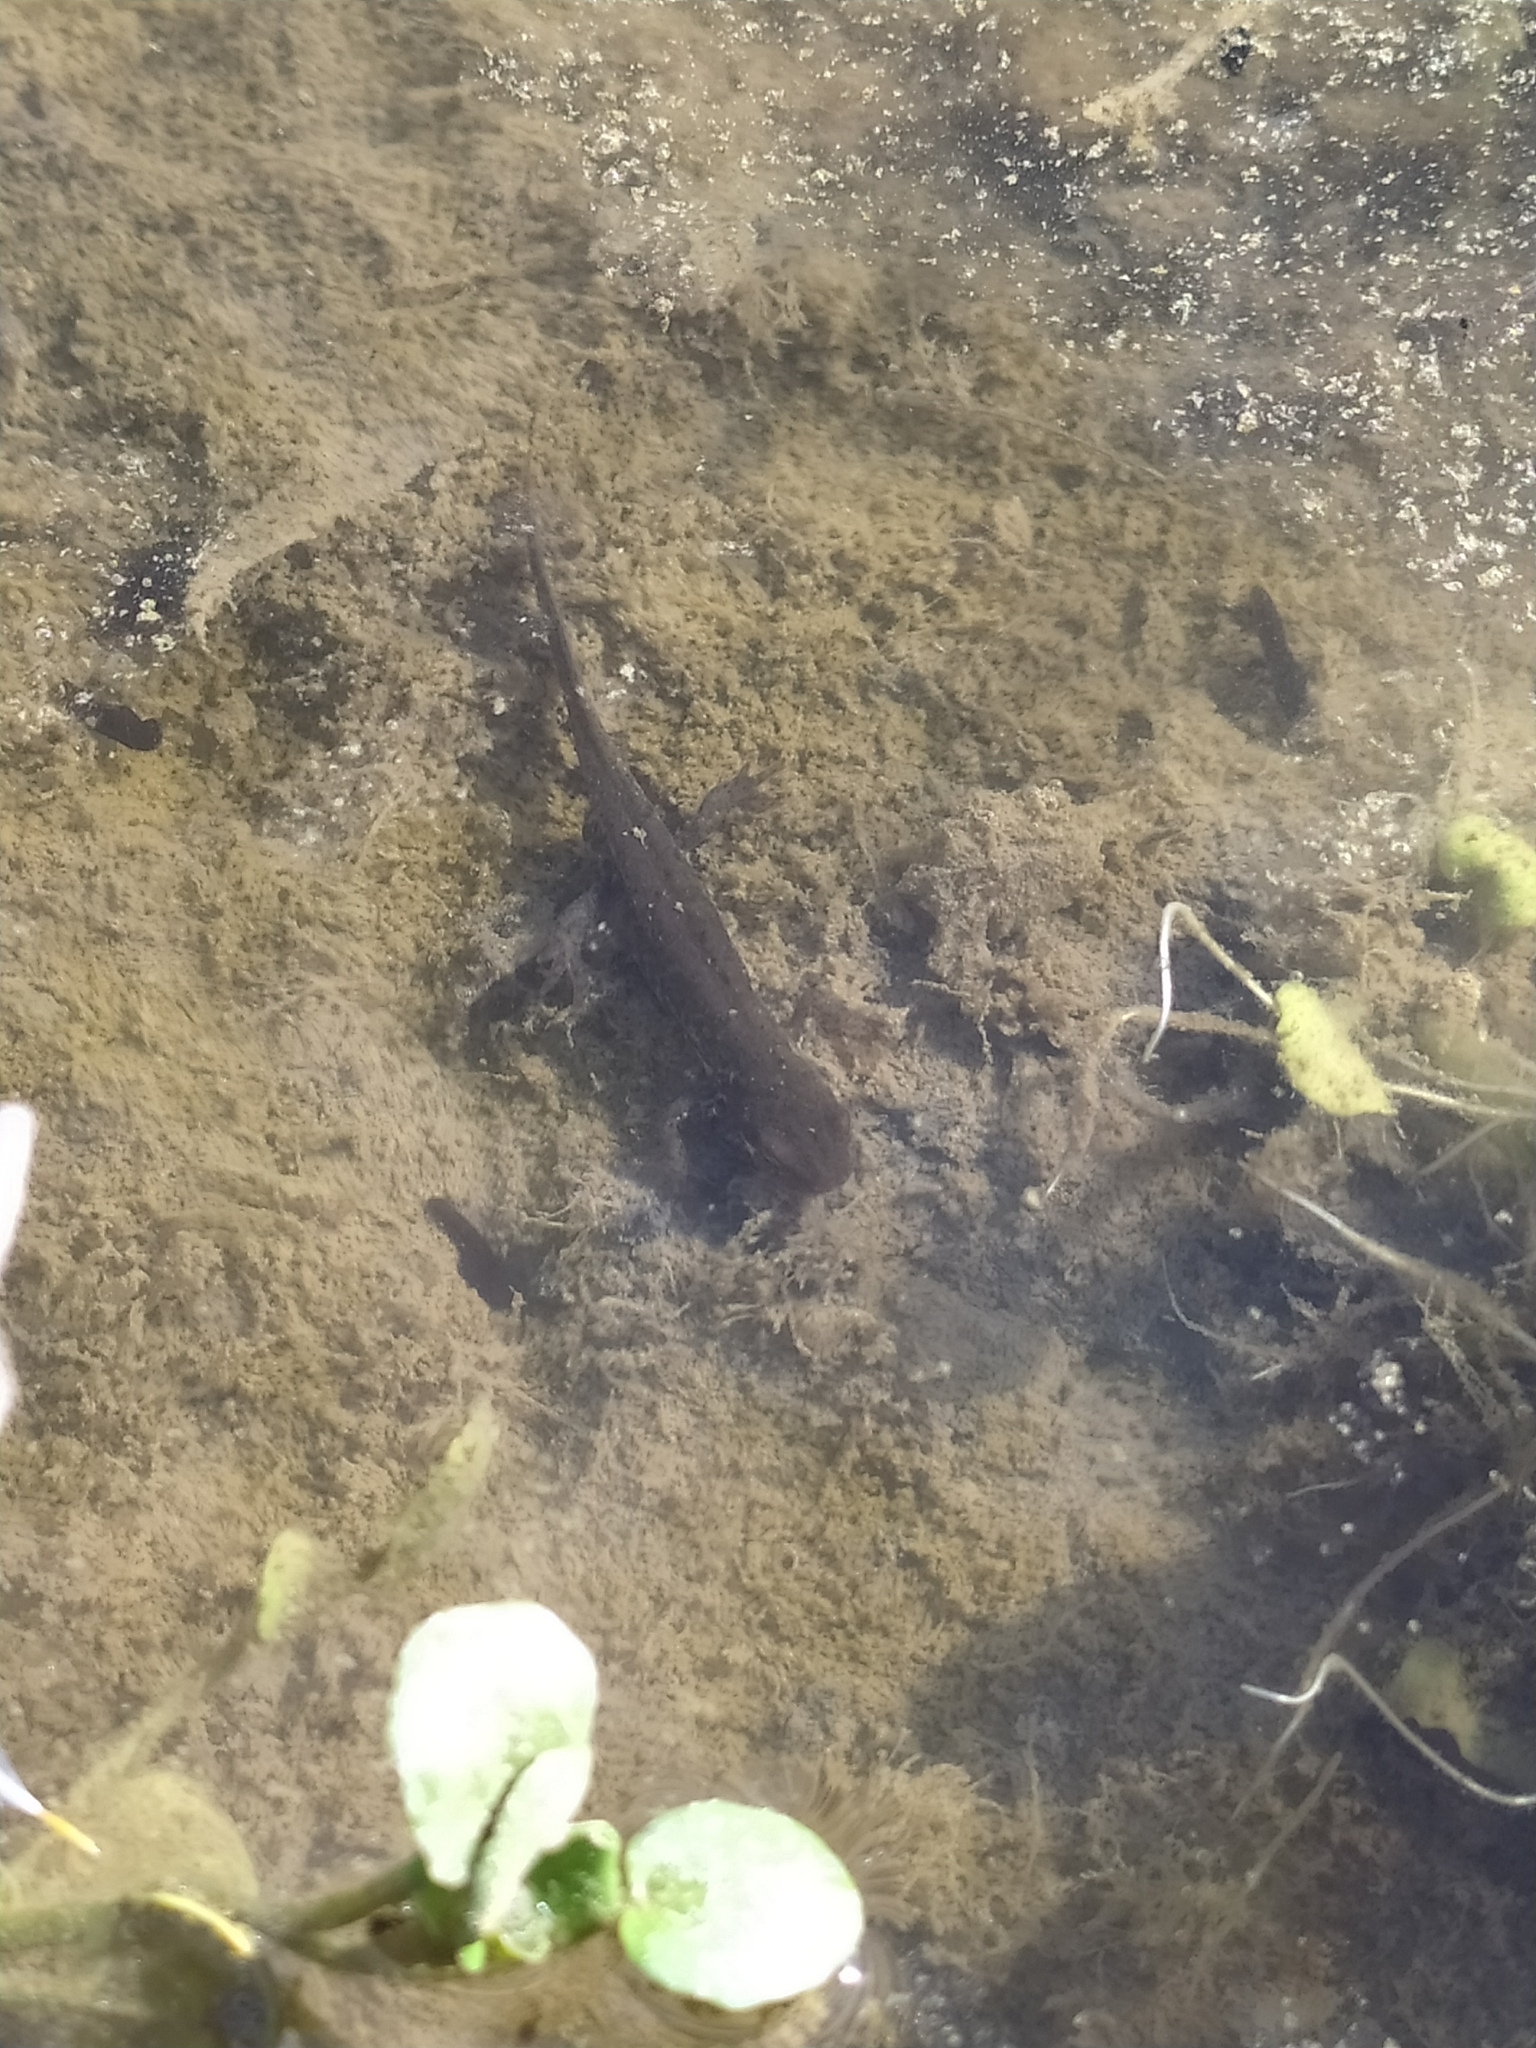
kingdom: Animalia
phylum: Chordata
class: Amphibia
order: Caudata
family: Salamandridae
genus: Lissotriton
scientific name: Lissotriton italicus
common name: Italian newt
